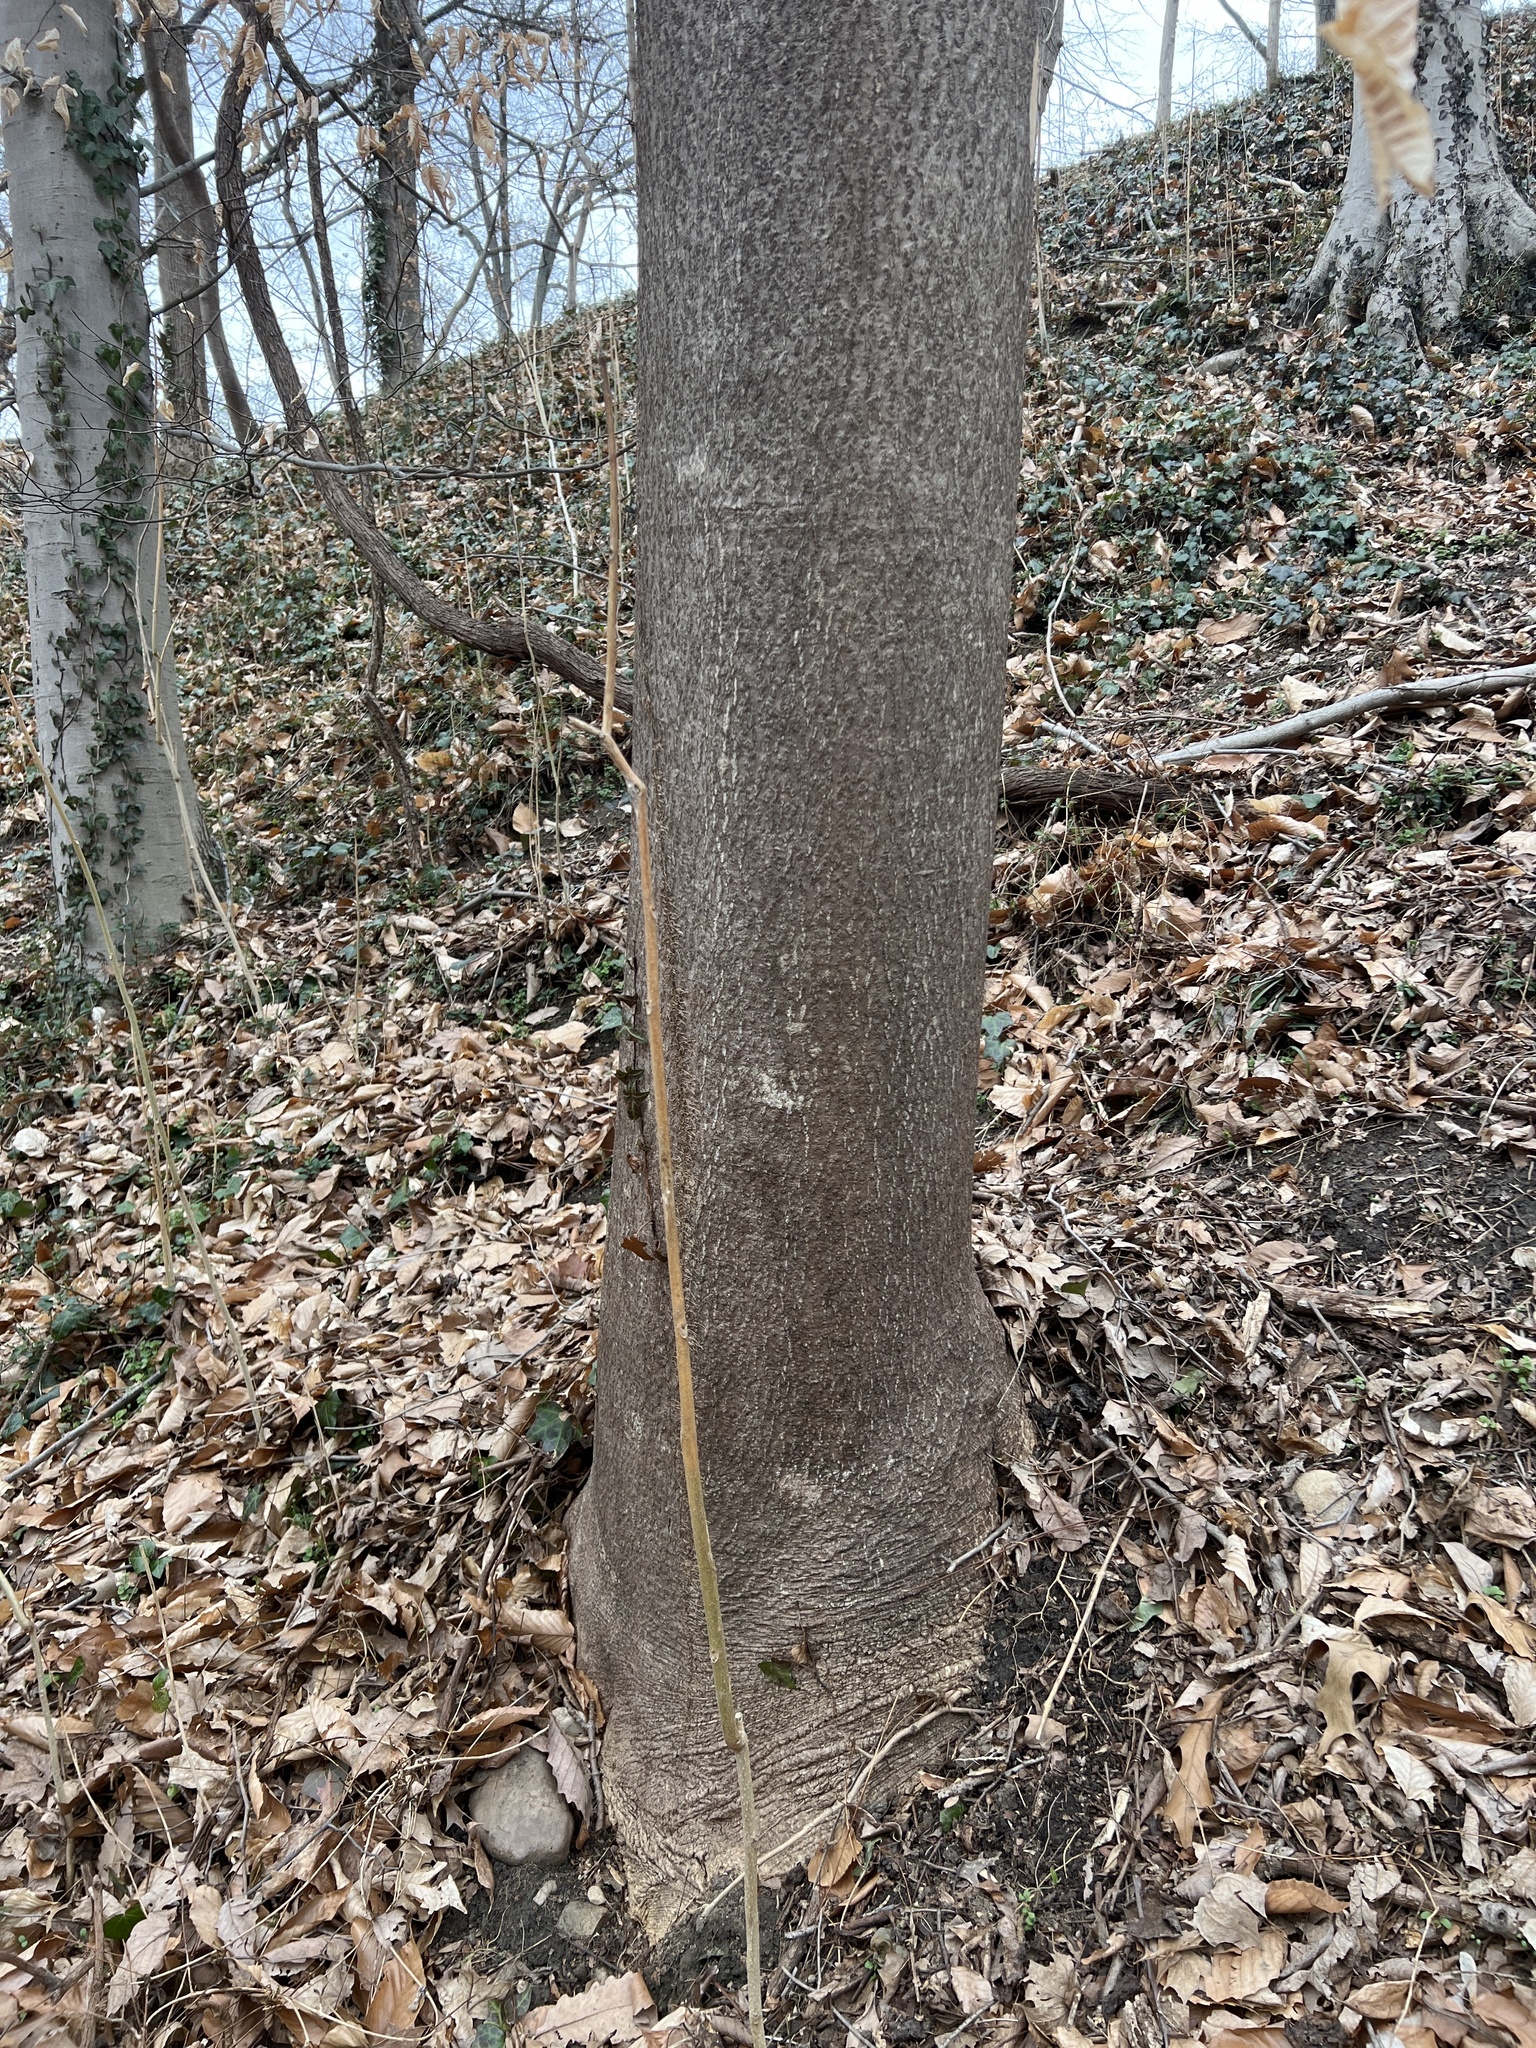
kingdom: Plantae
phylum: Tracheophyta
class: Magnoliopsida
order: Sapindales
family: Simaroubaceae
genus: Ailanthus
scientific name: Ailanthus altissima
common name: Tree-of-heaven
